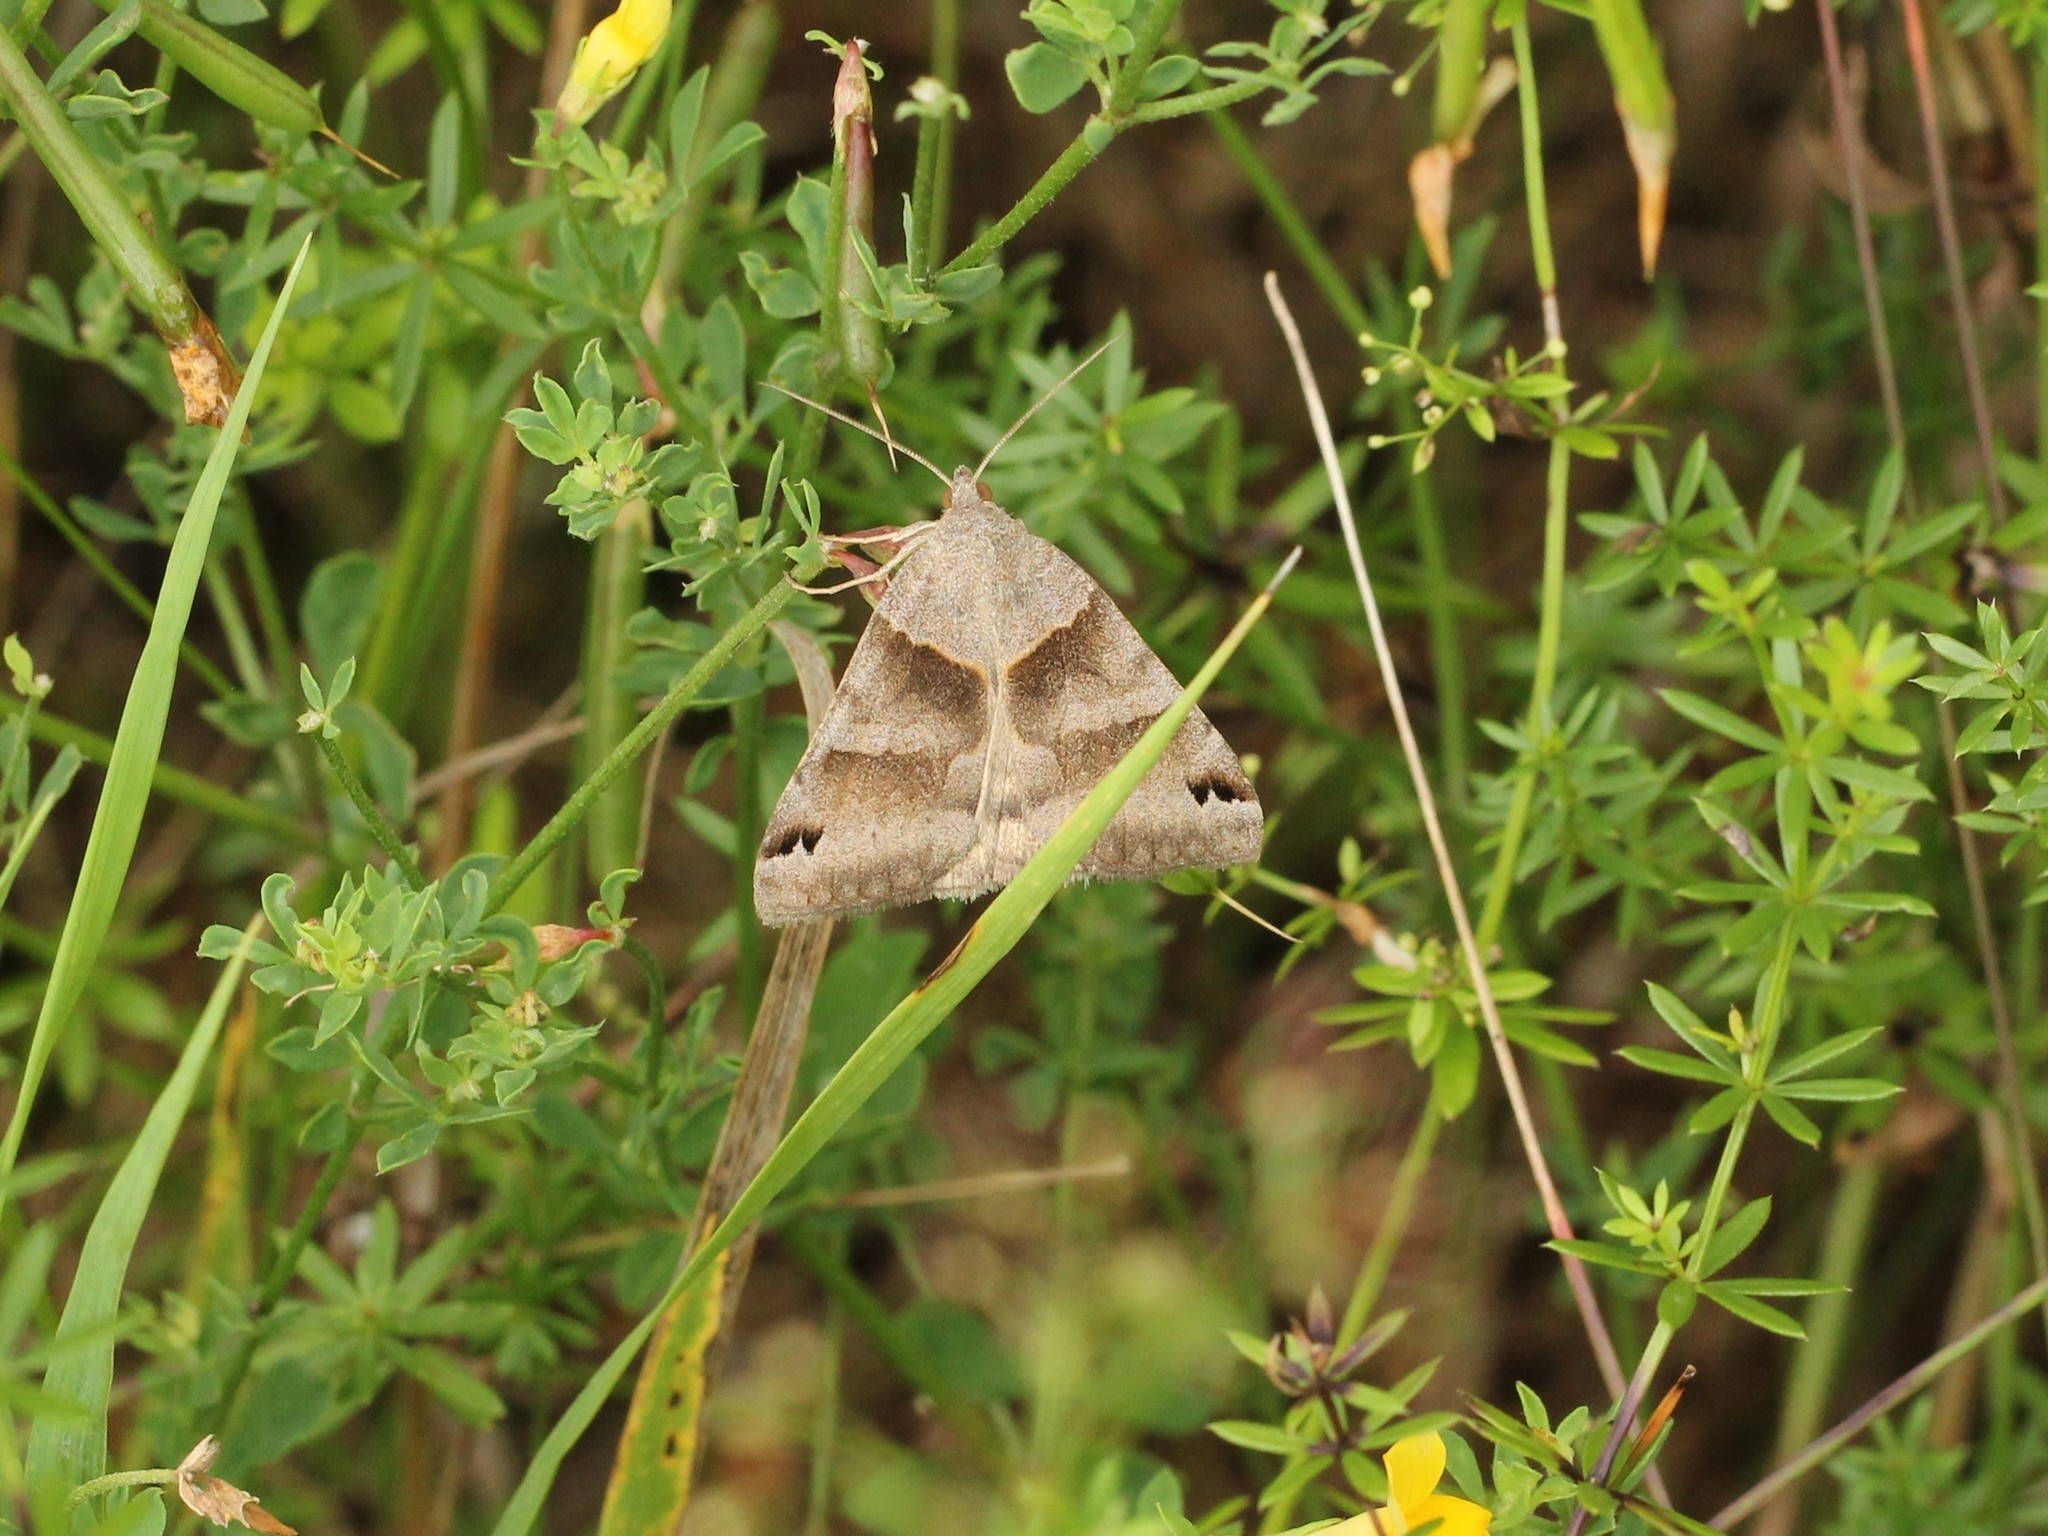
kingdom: Animalia
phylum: Arthropoda
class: Insecta
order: Lepidoptera
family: Erebidae
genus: Caenurgina
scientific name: Caenurgina crassiuscula
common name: Double-barred
